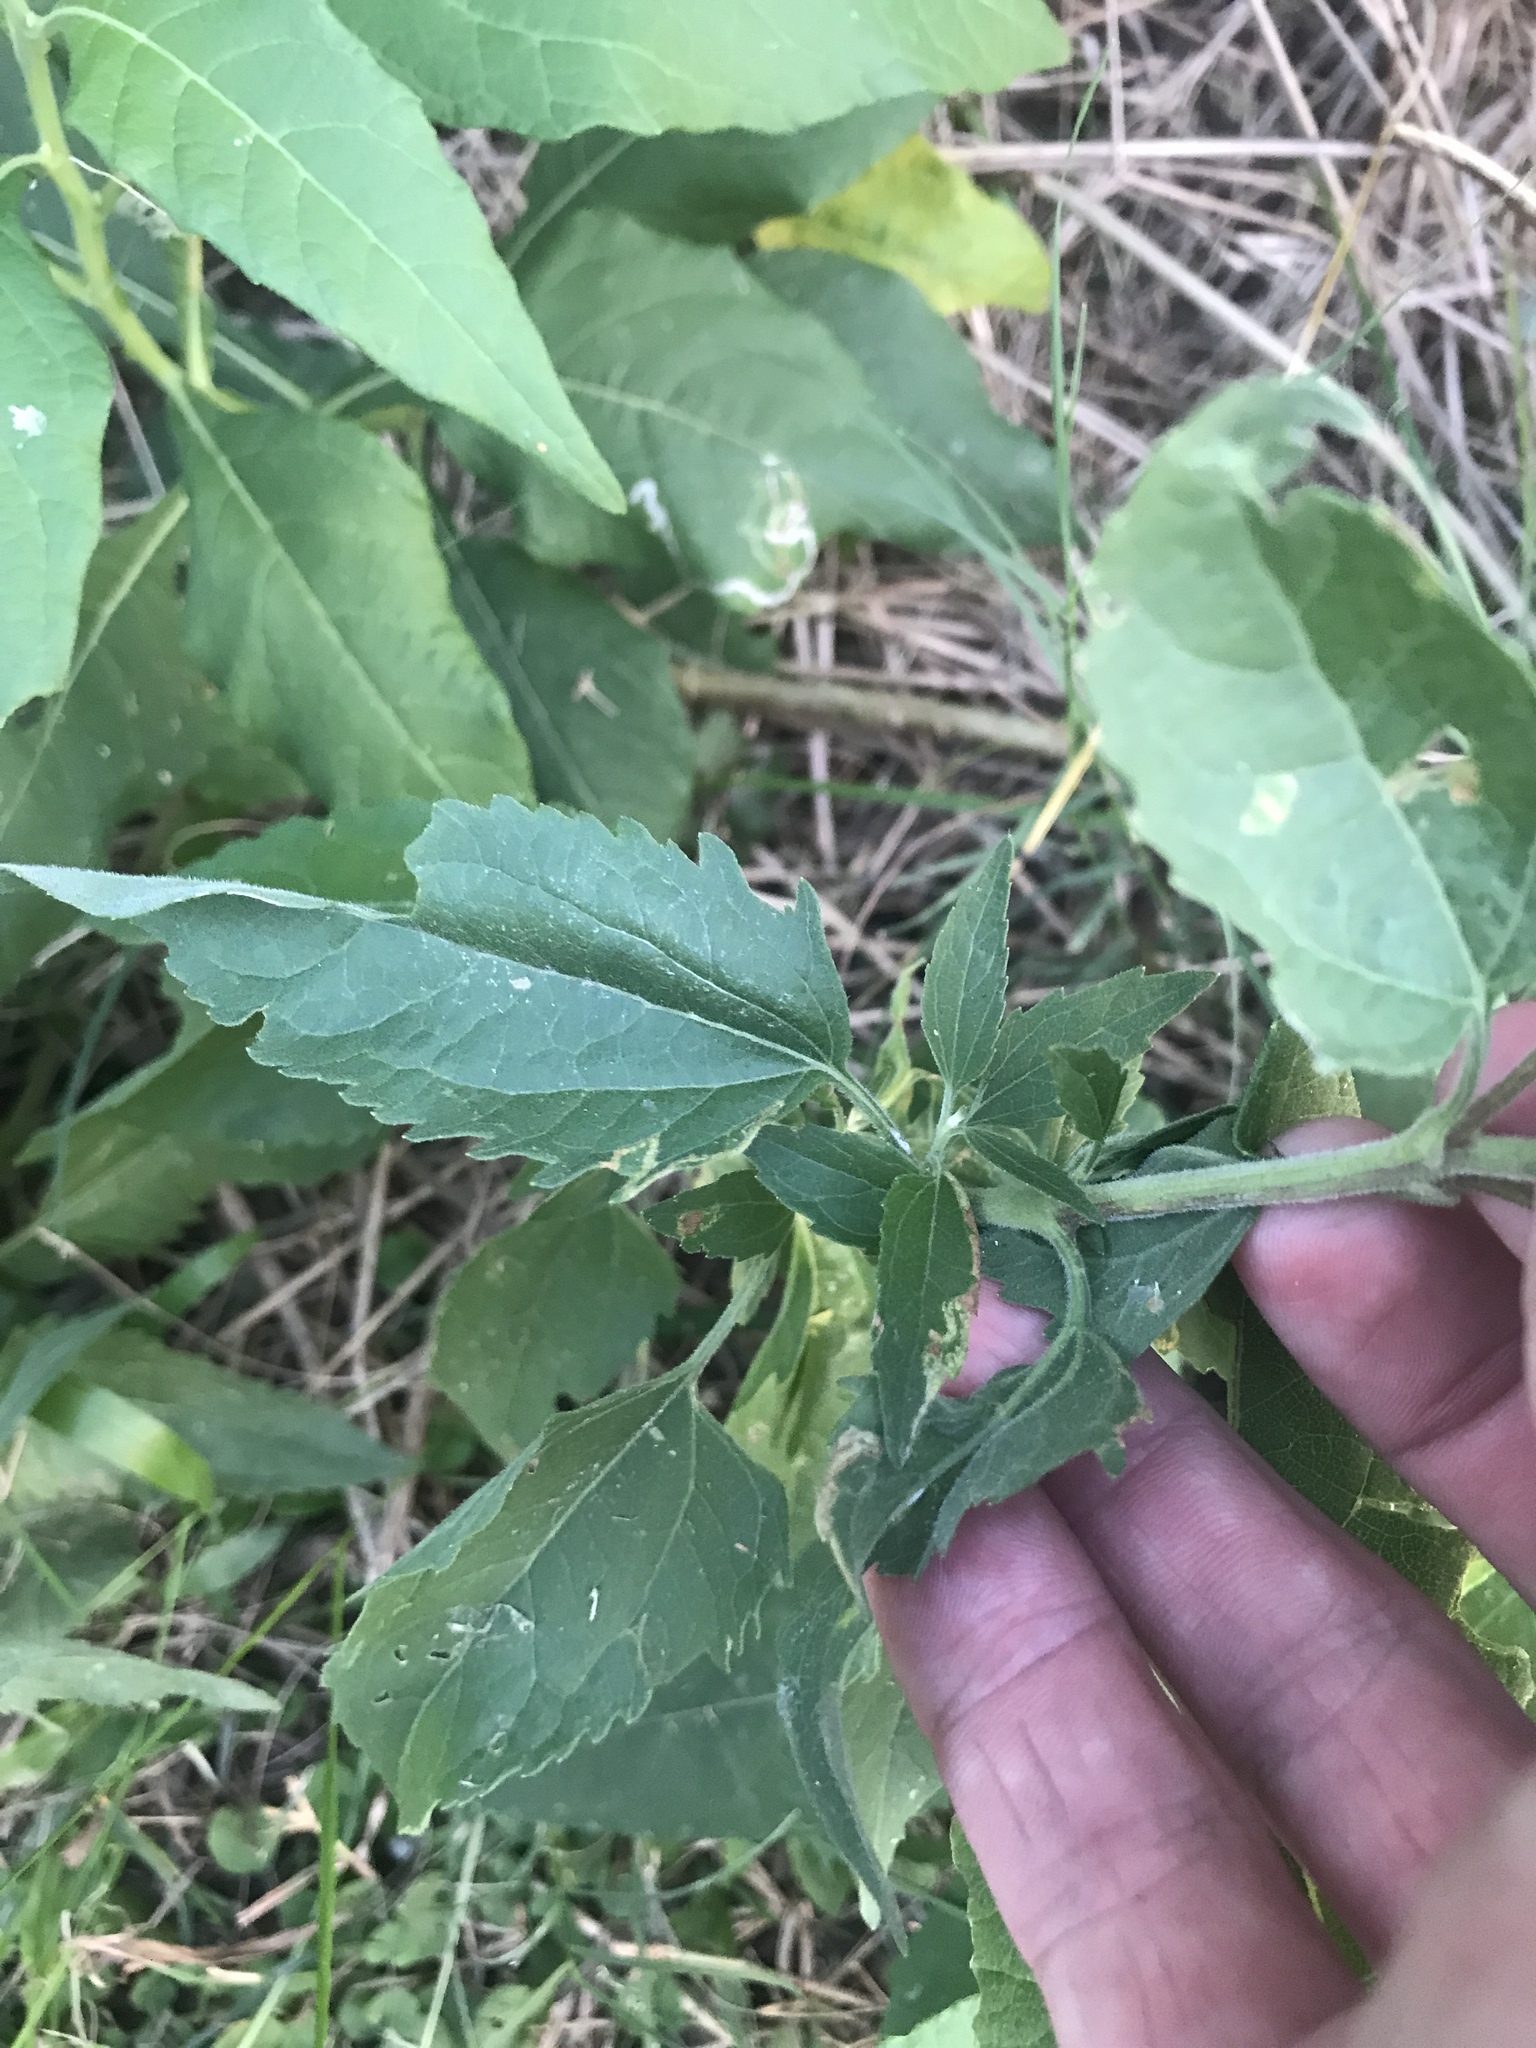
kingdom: Plantae
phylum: Tracheophyta
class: Magnoliopsida
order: Asterales
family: Asteraceae
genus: Eupatorium
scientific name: Eupatorium serotinum
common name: Late boneset
